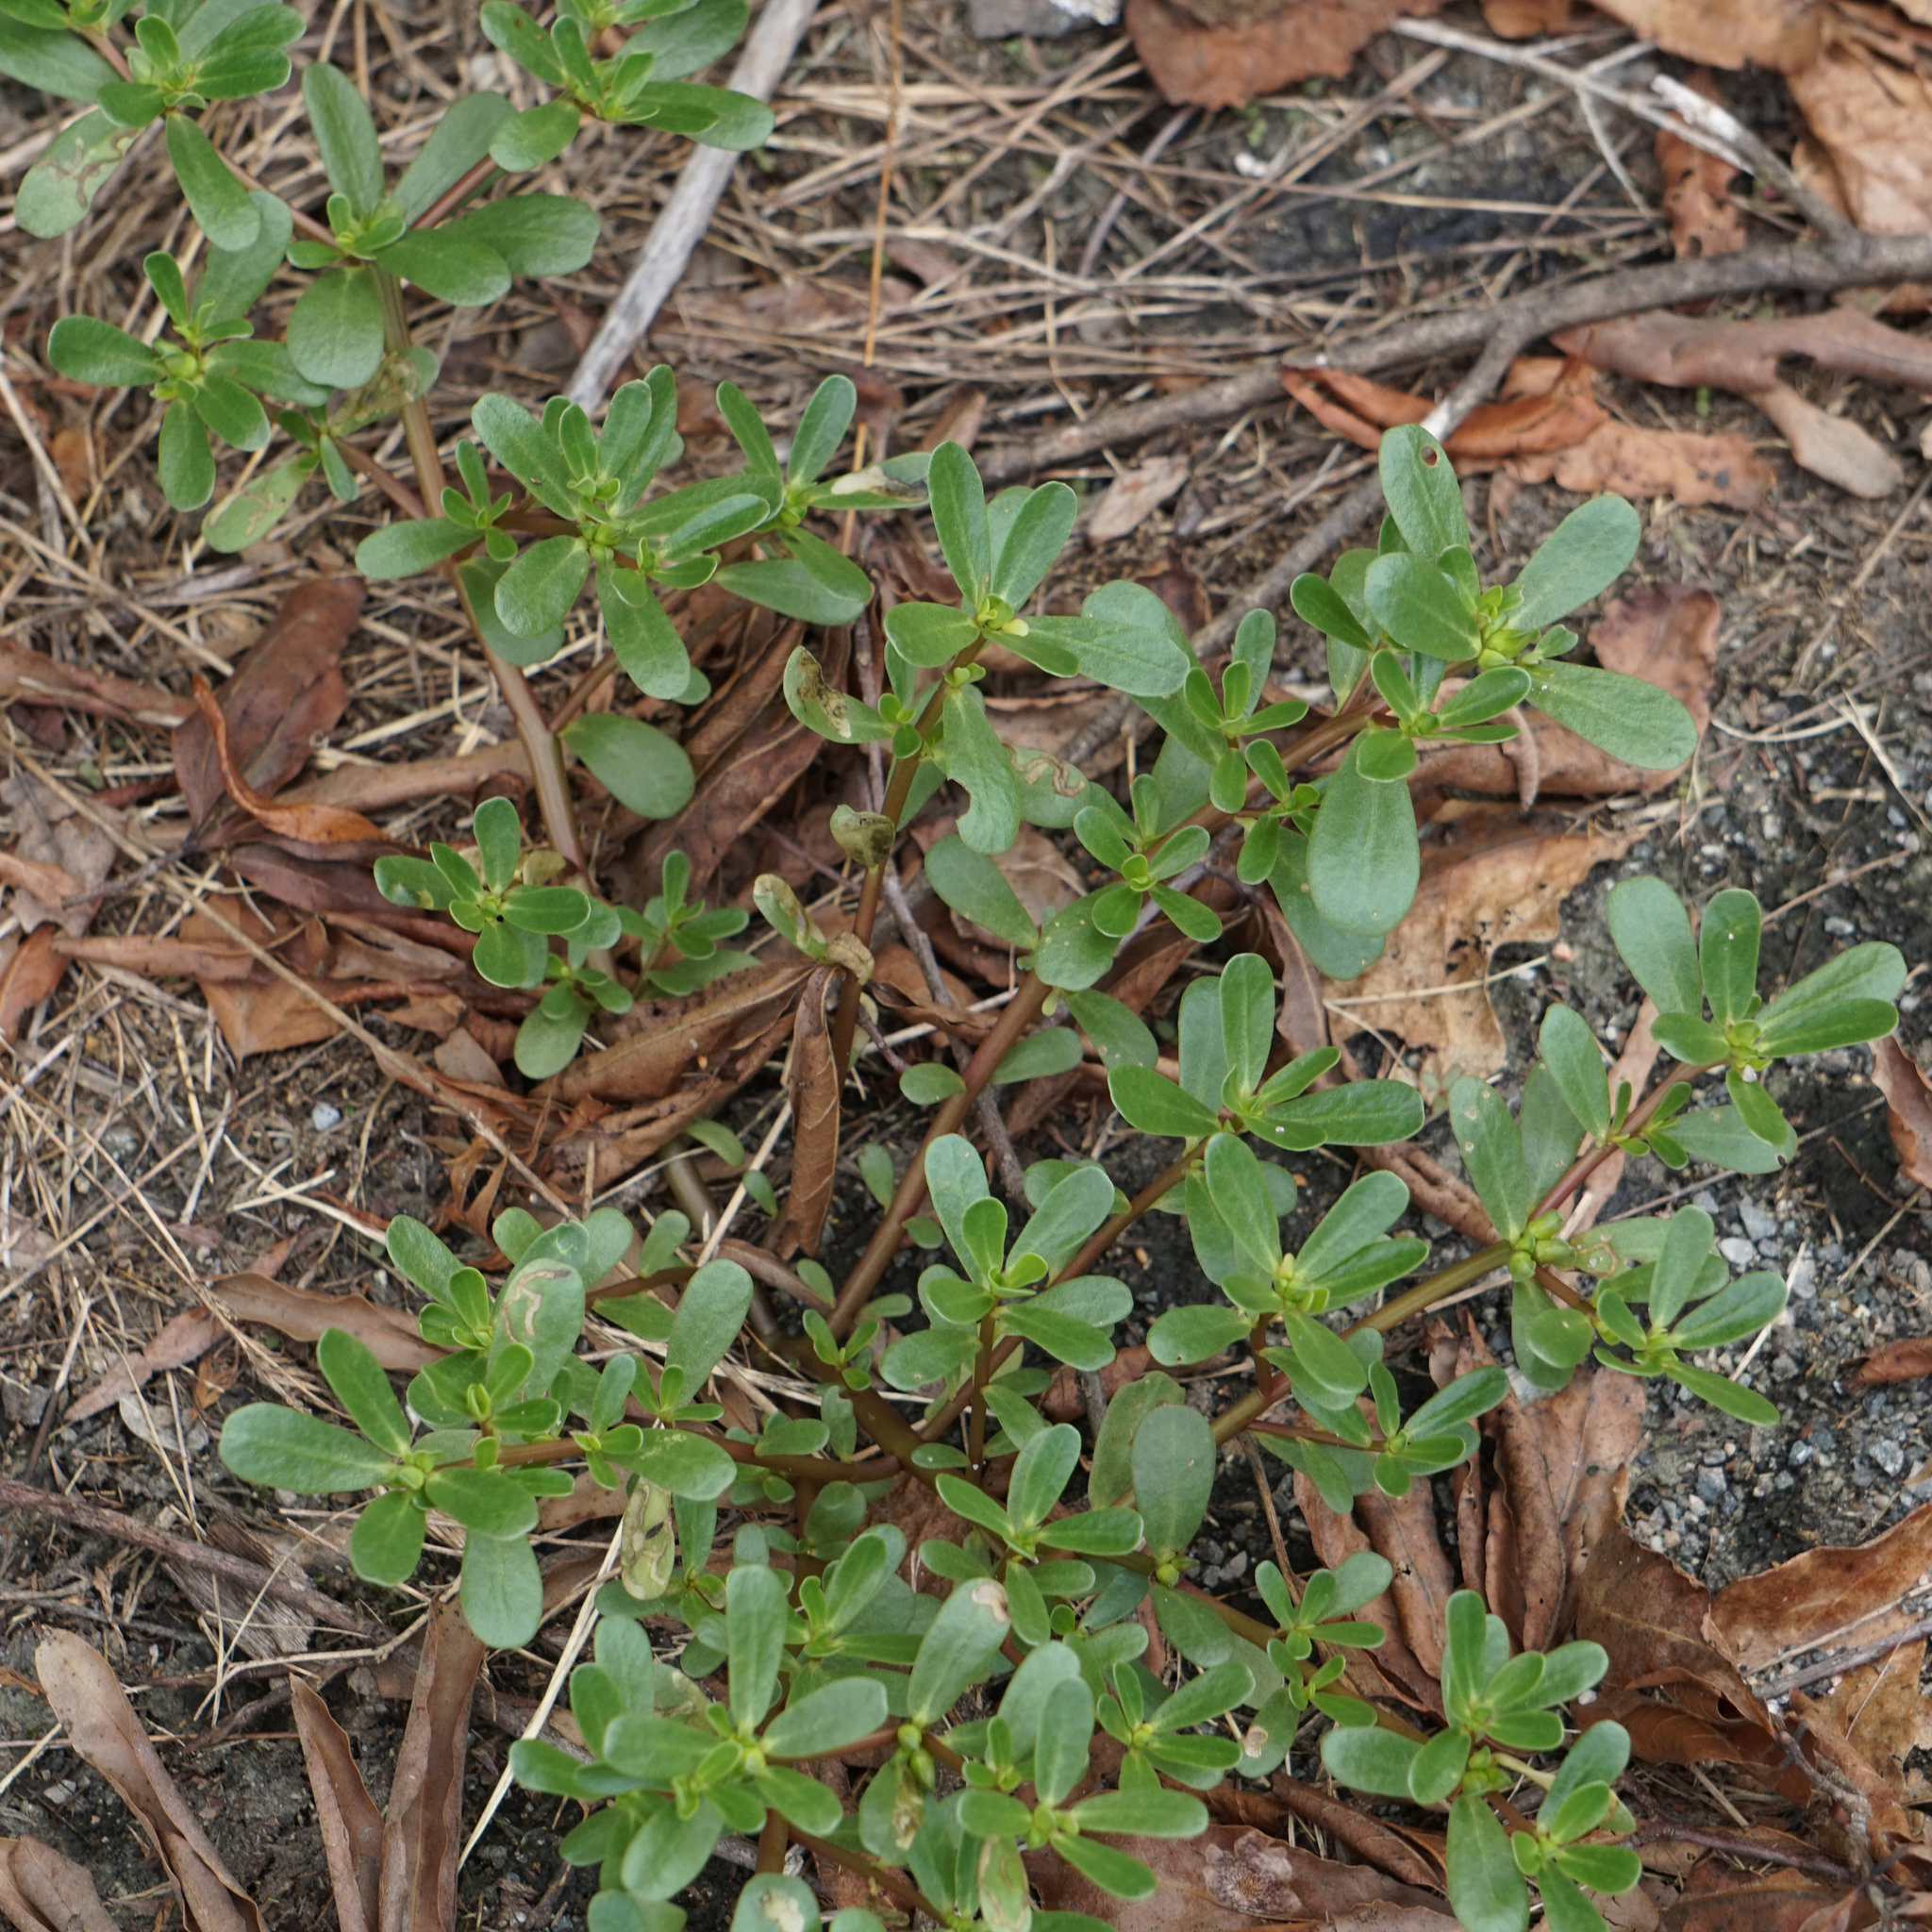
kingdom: Plantae
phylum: Tracheophyta
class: Magnoliopsida
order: Caryophyllales
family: Portulacaceae
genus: Portulaca
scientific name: Portulaca oleracea
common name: Common purslane
